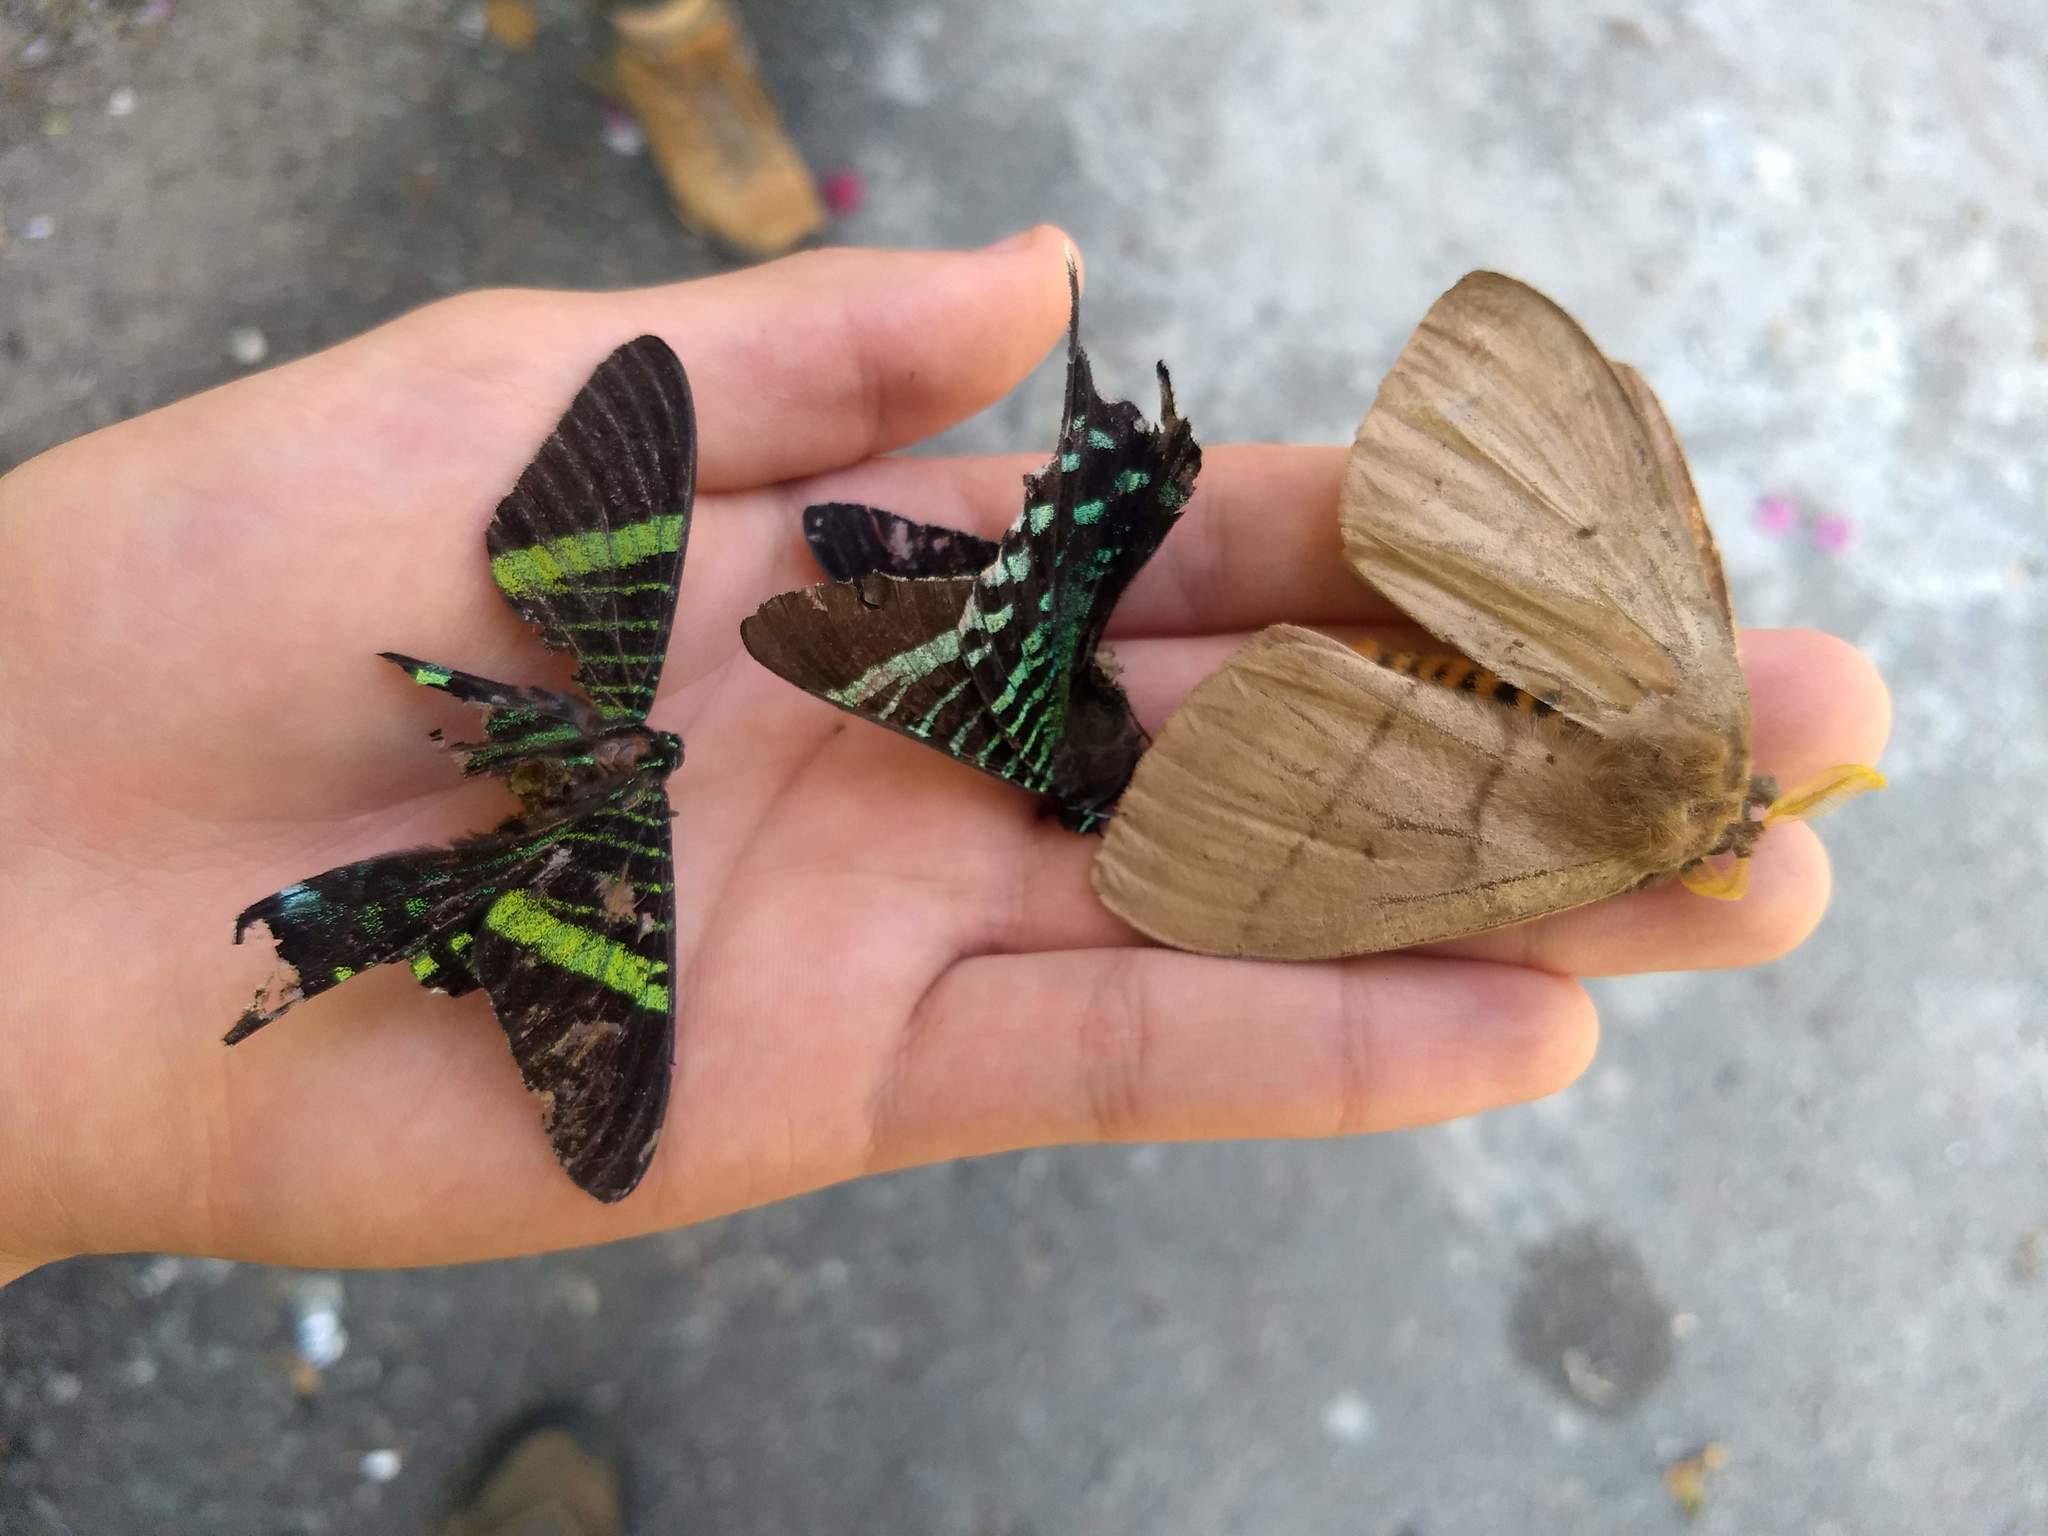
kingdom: Animalia
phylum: Arthropoda
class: Insecta
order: Lepidoptera
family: Uraniidae
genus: Urania
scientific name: Urania fulgens
